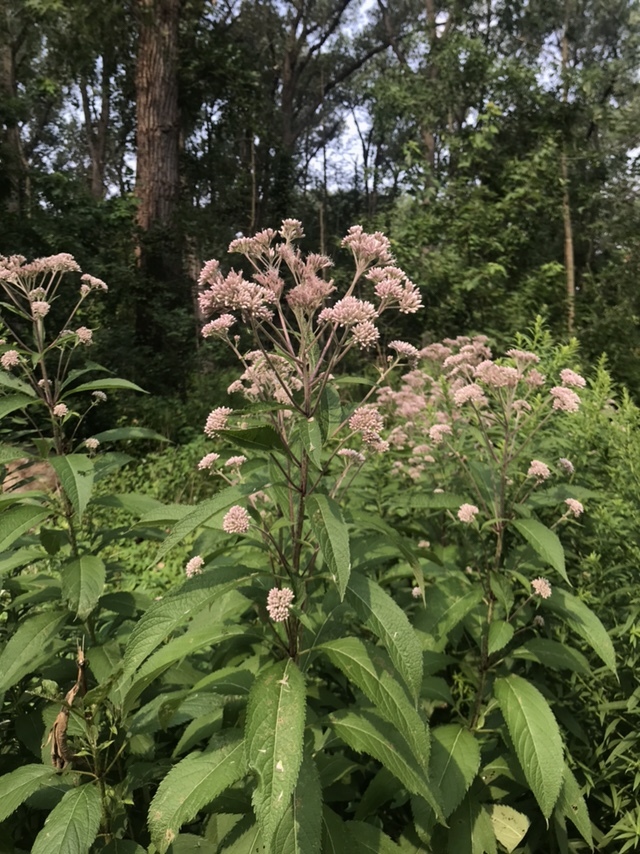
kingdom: Plantae
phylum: Tracheophyta
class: Magnoliopsida
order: Asterales
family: Asteraceae
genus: Eutrochium
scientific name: Eutrochium maculatum
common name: Spotted joe pye weed
